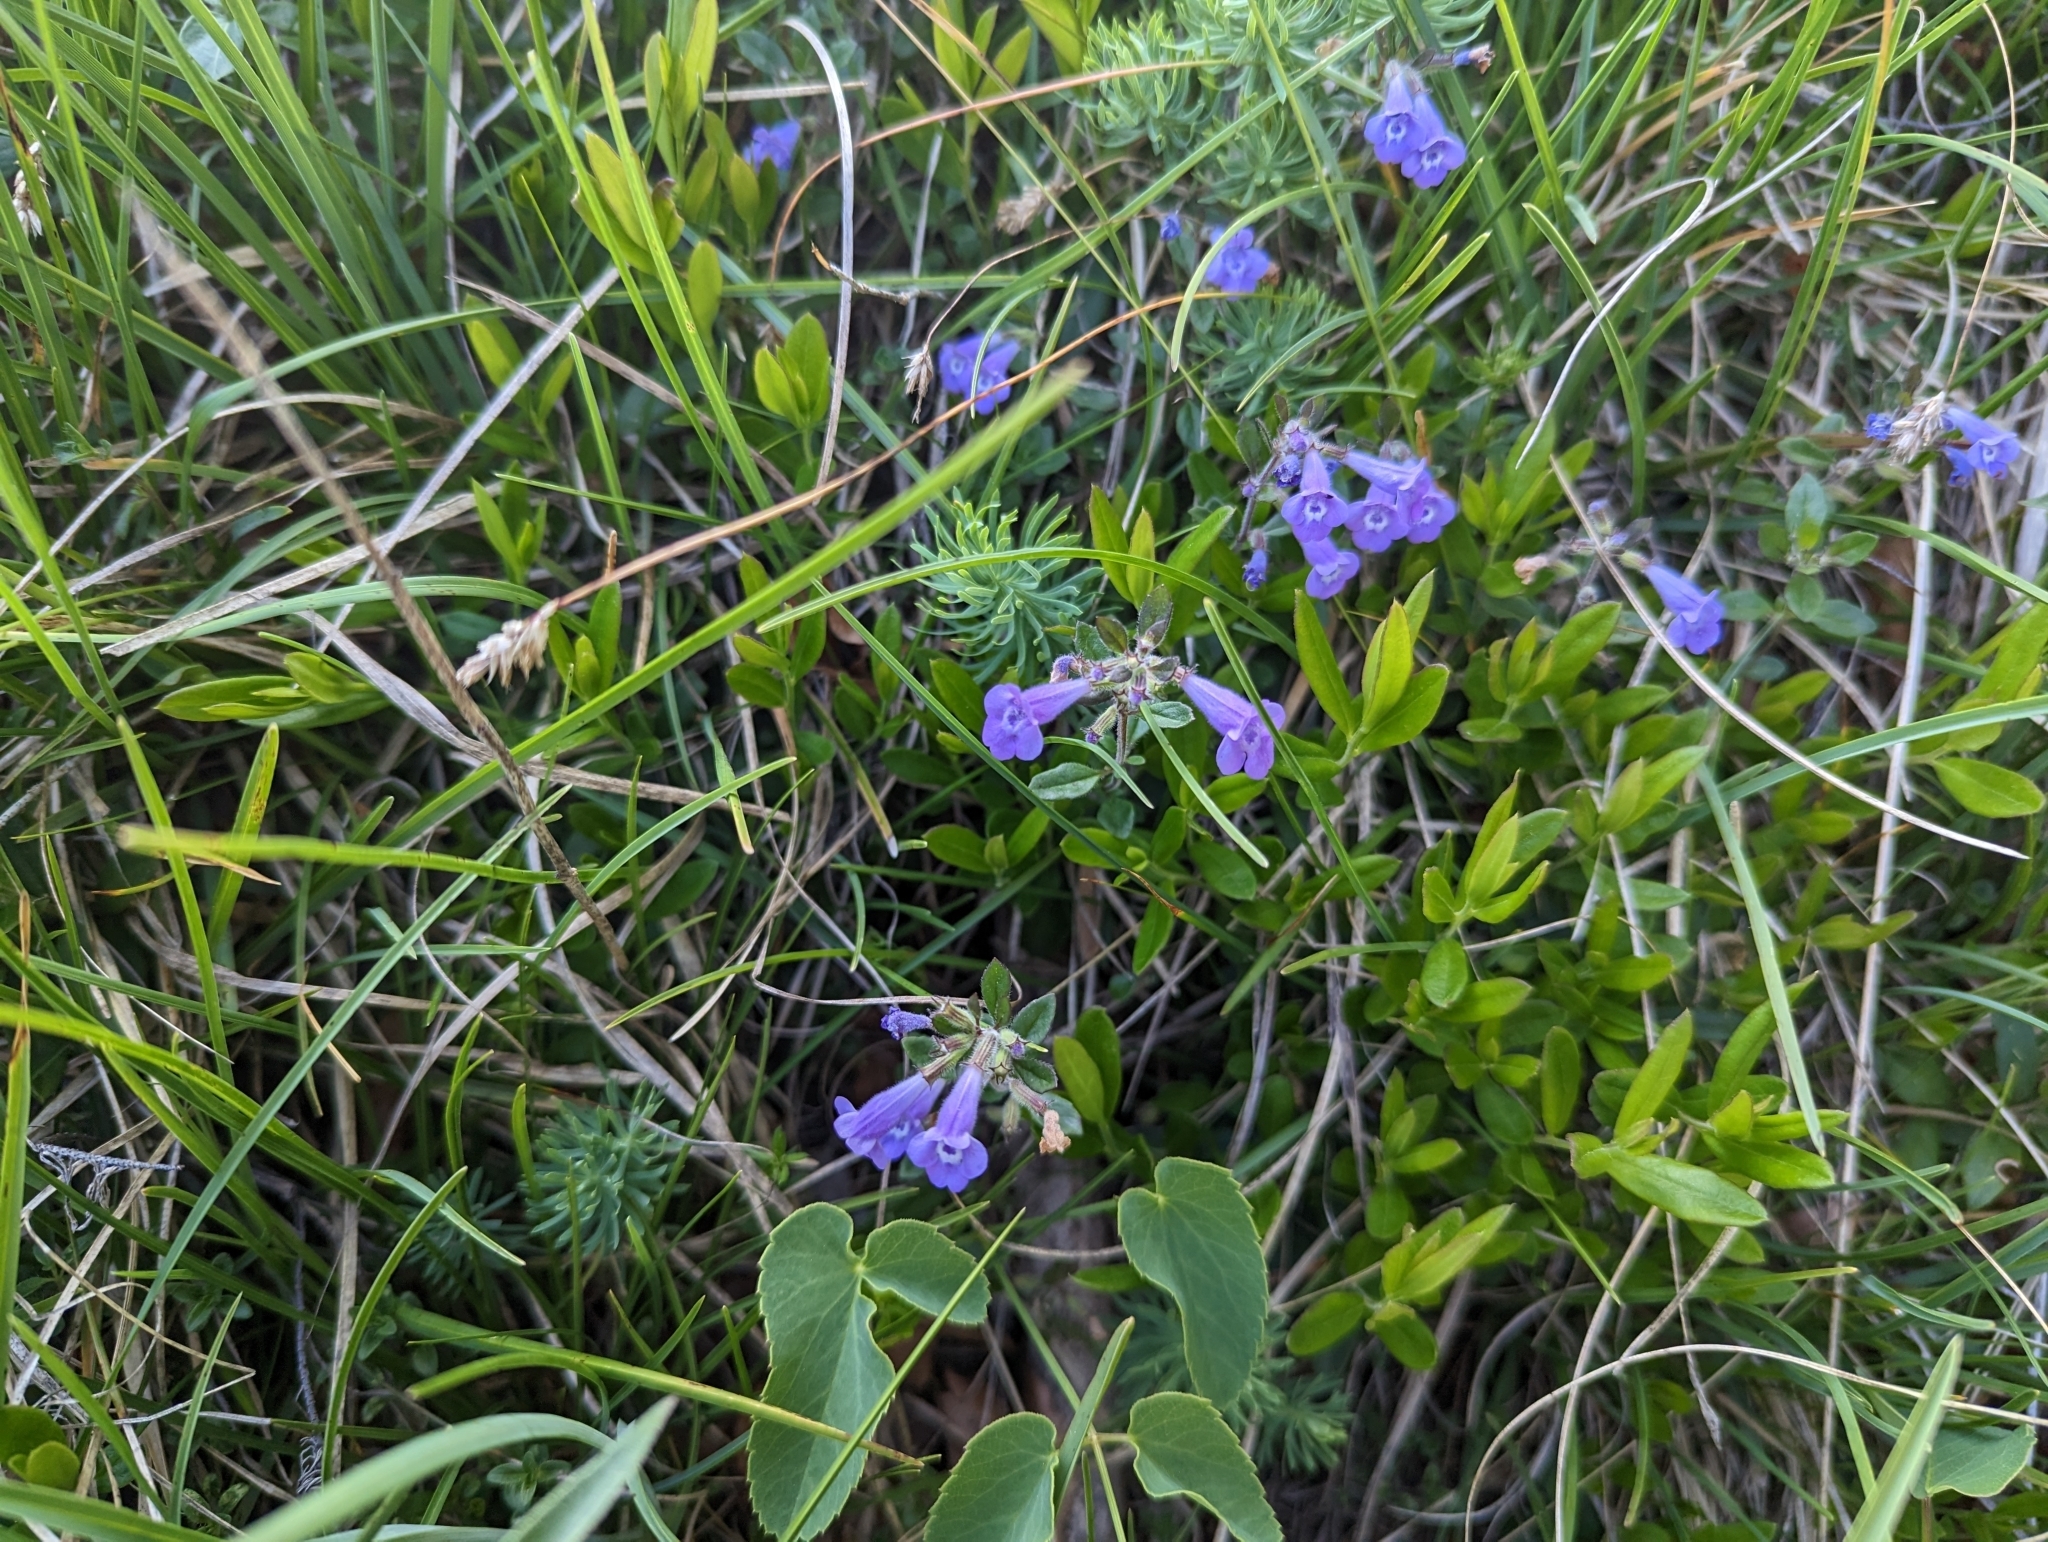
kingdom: Plantae
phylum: Tracheophyta
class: Magnoliopsida
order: Lamiales
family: Lamiaceae
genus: Clinopodium
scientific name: Clinopodium alpinum
